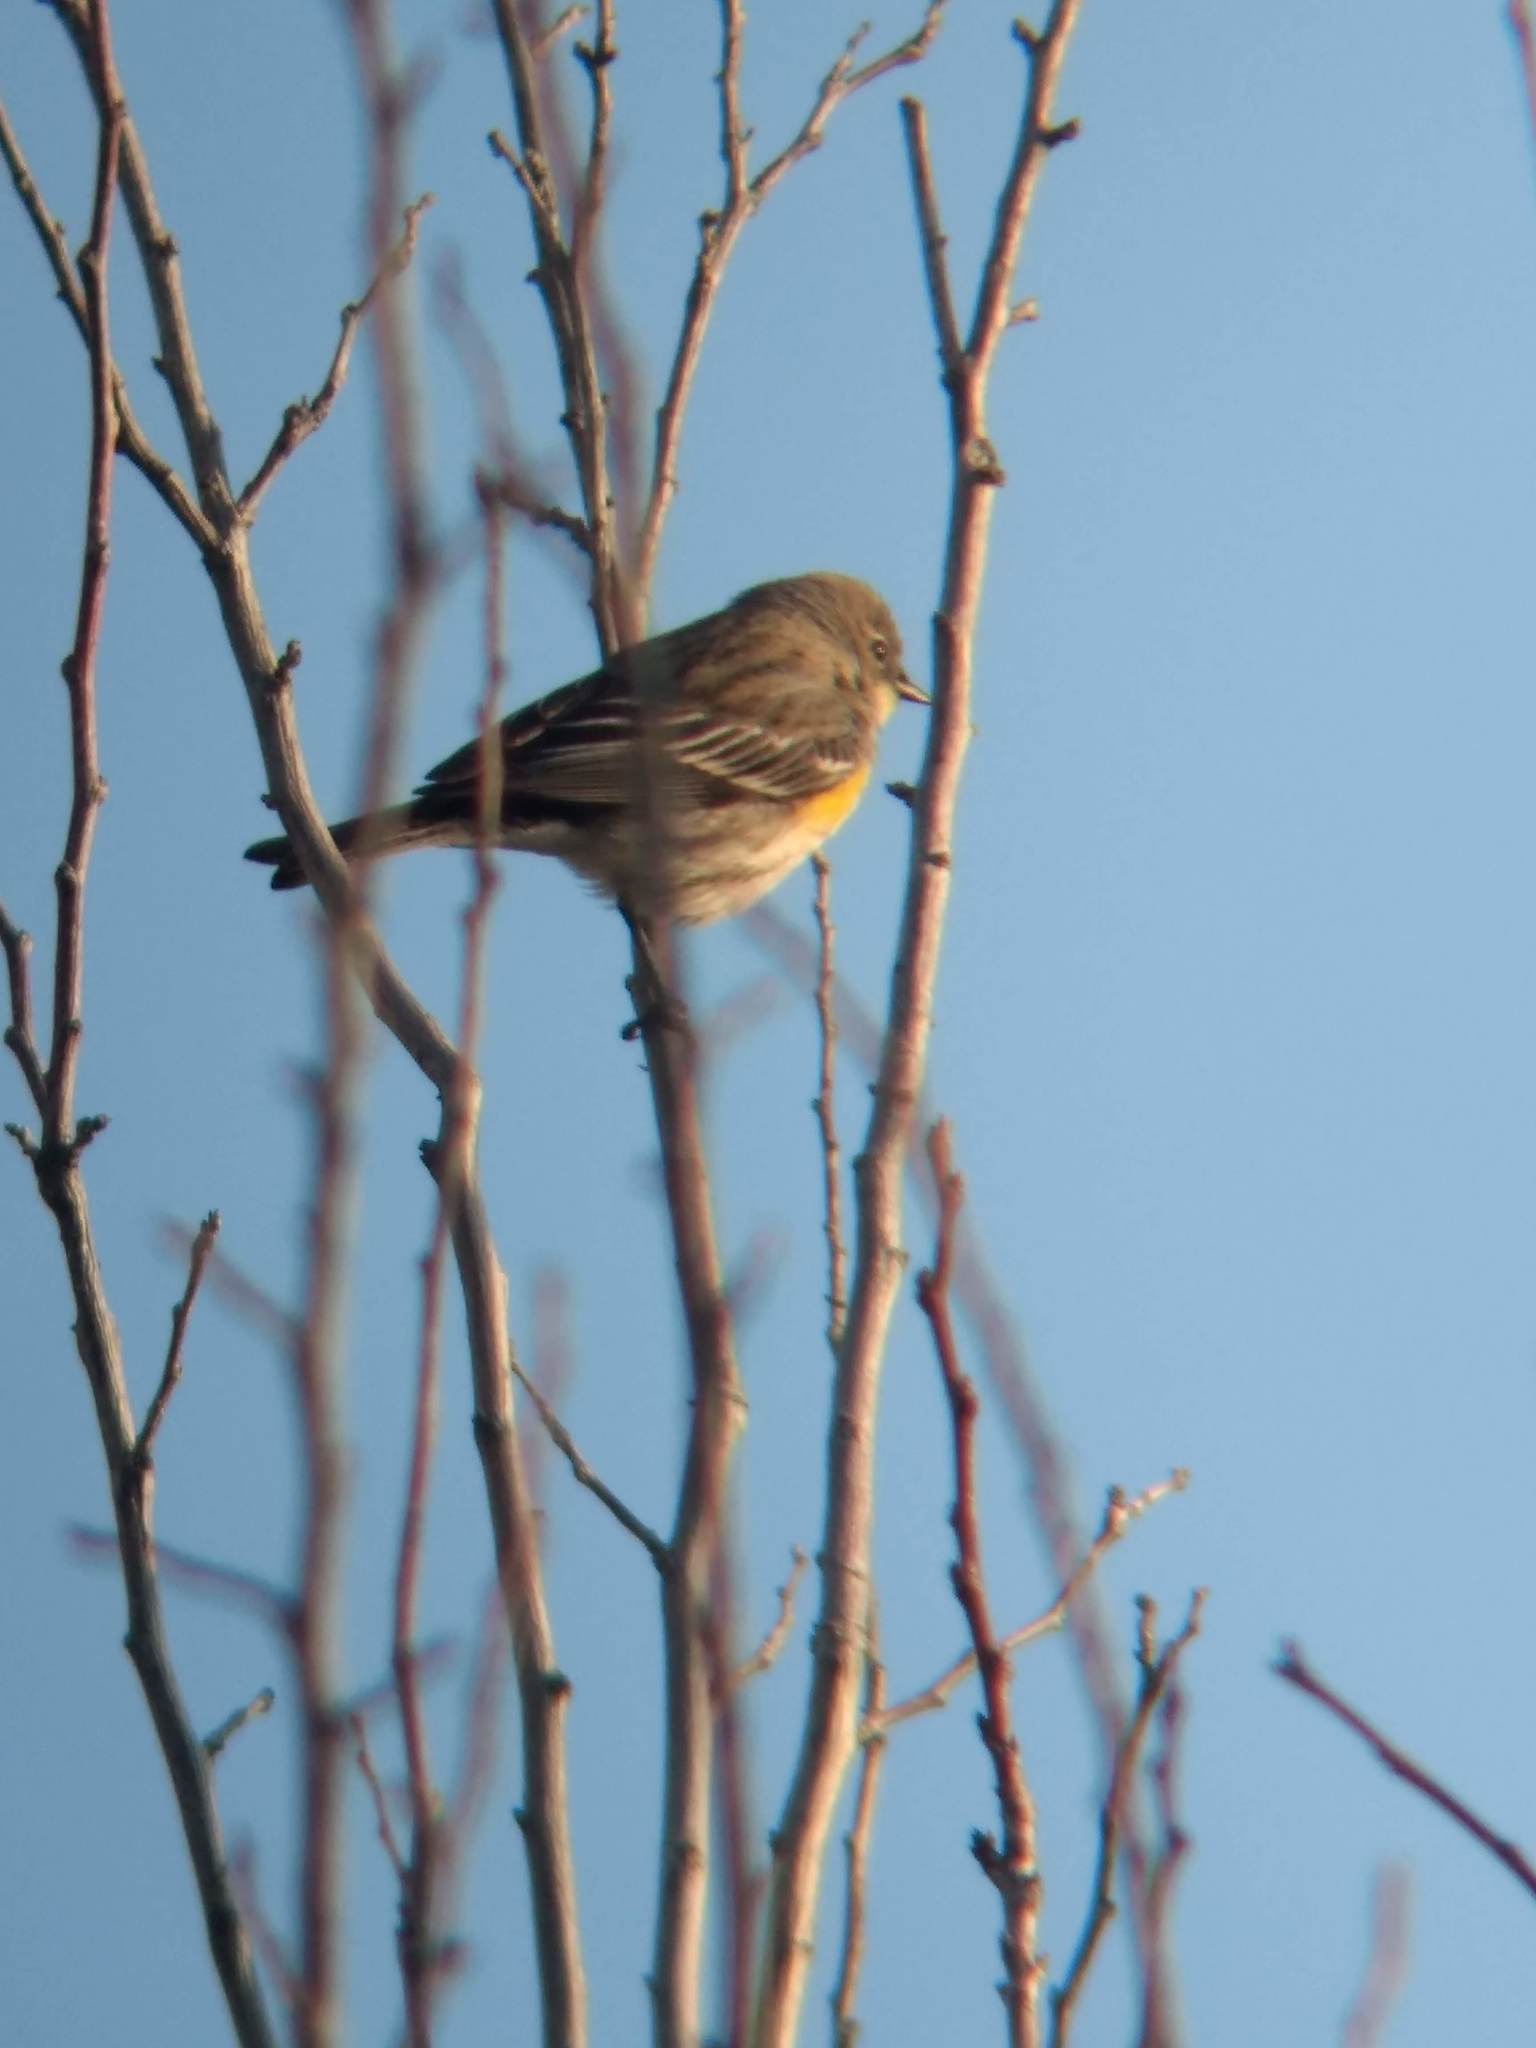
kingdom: Animalia
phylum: Chordata
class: Aves
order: Passeriformes
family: Parulidae
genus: Setophaga
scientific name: Setophaga coronata
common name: Myrtle warbler
